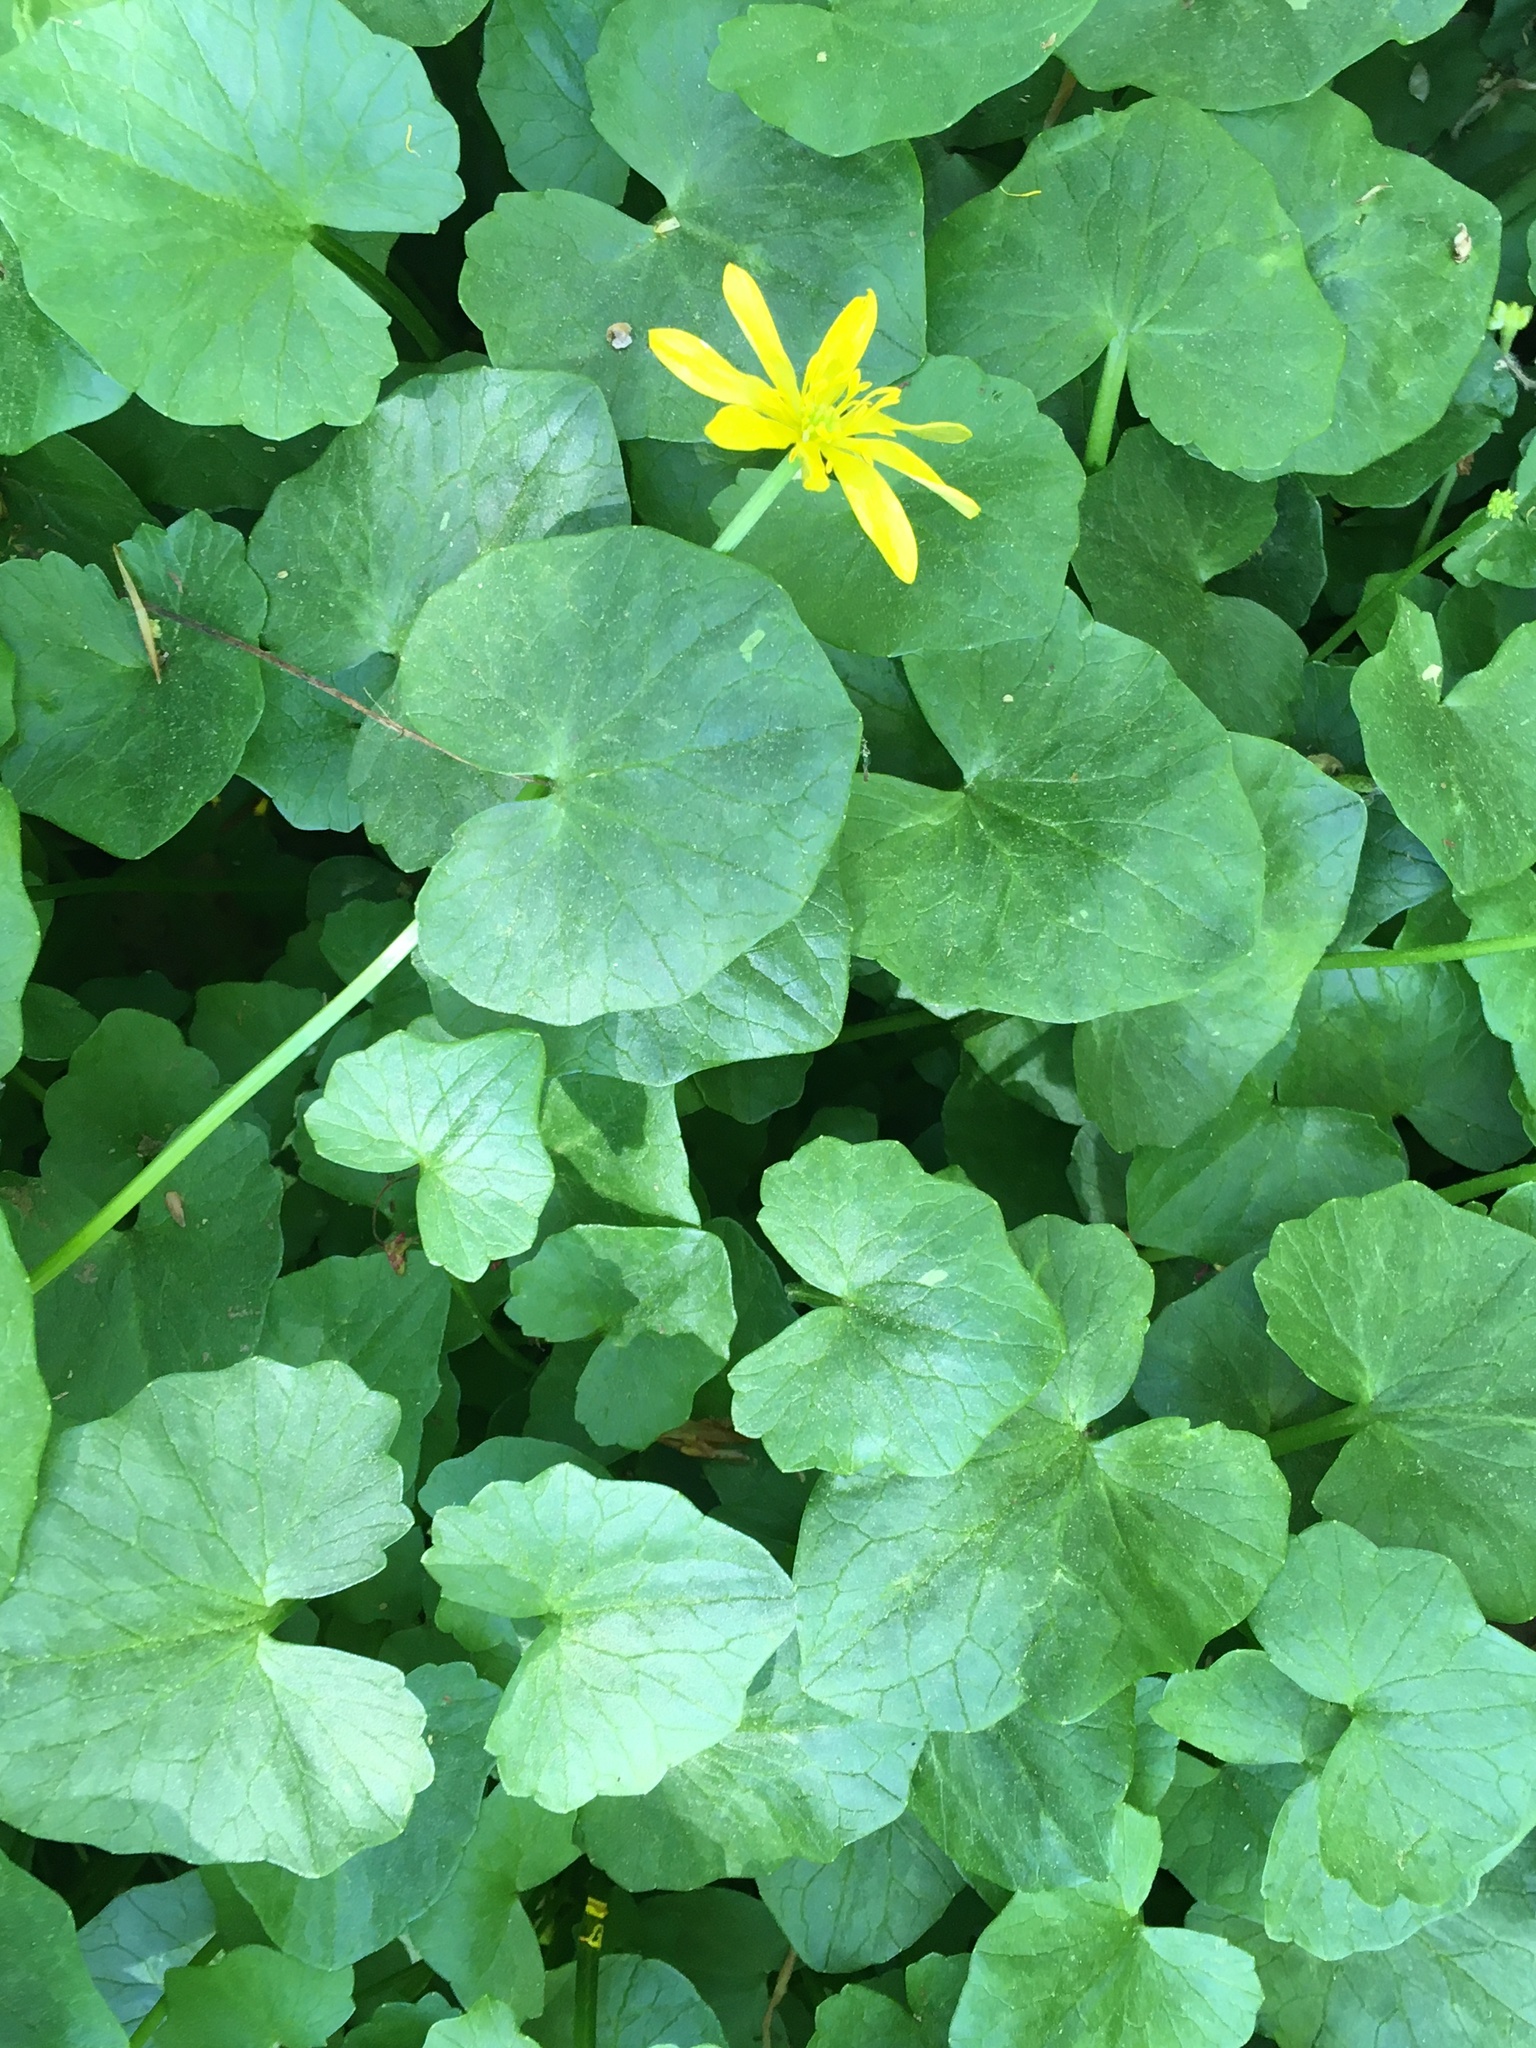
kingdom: Plantae
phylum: Tracheophyta
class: Magnoliopsida
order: Ranunculales
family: Ranunculaceae
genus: Ficaria
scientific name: Ficaria verna
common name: Lesser celandine
